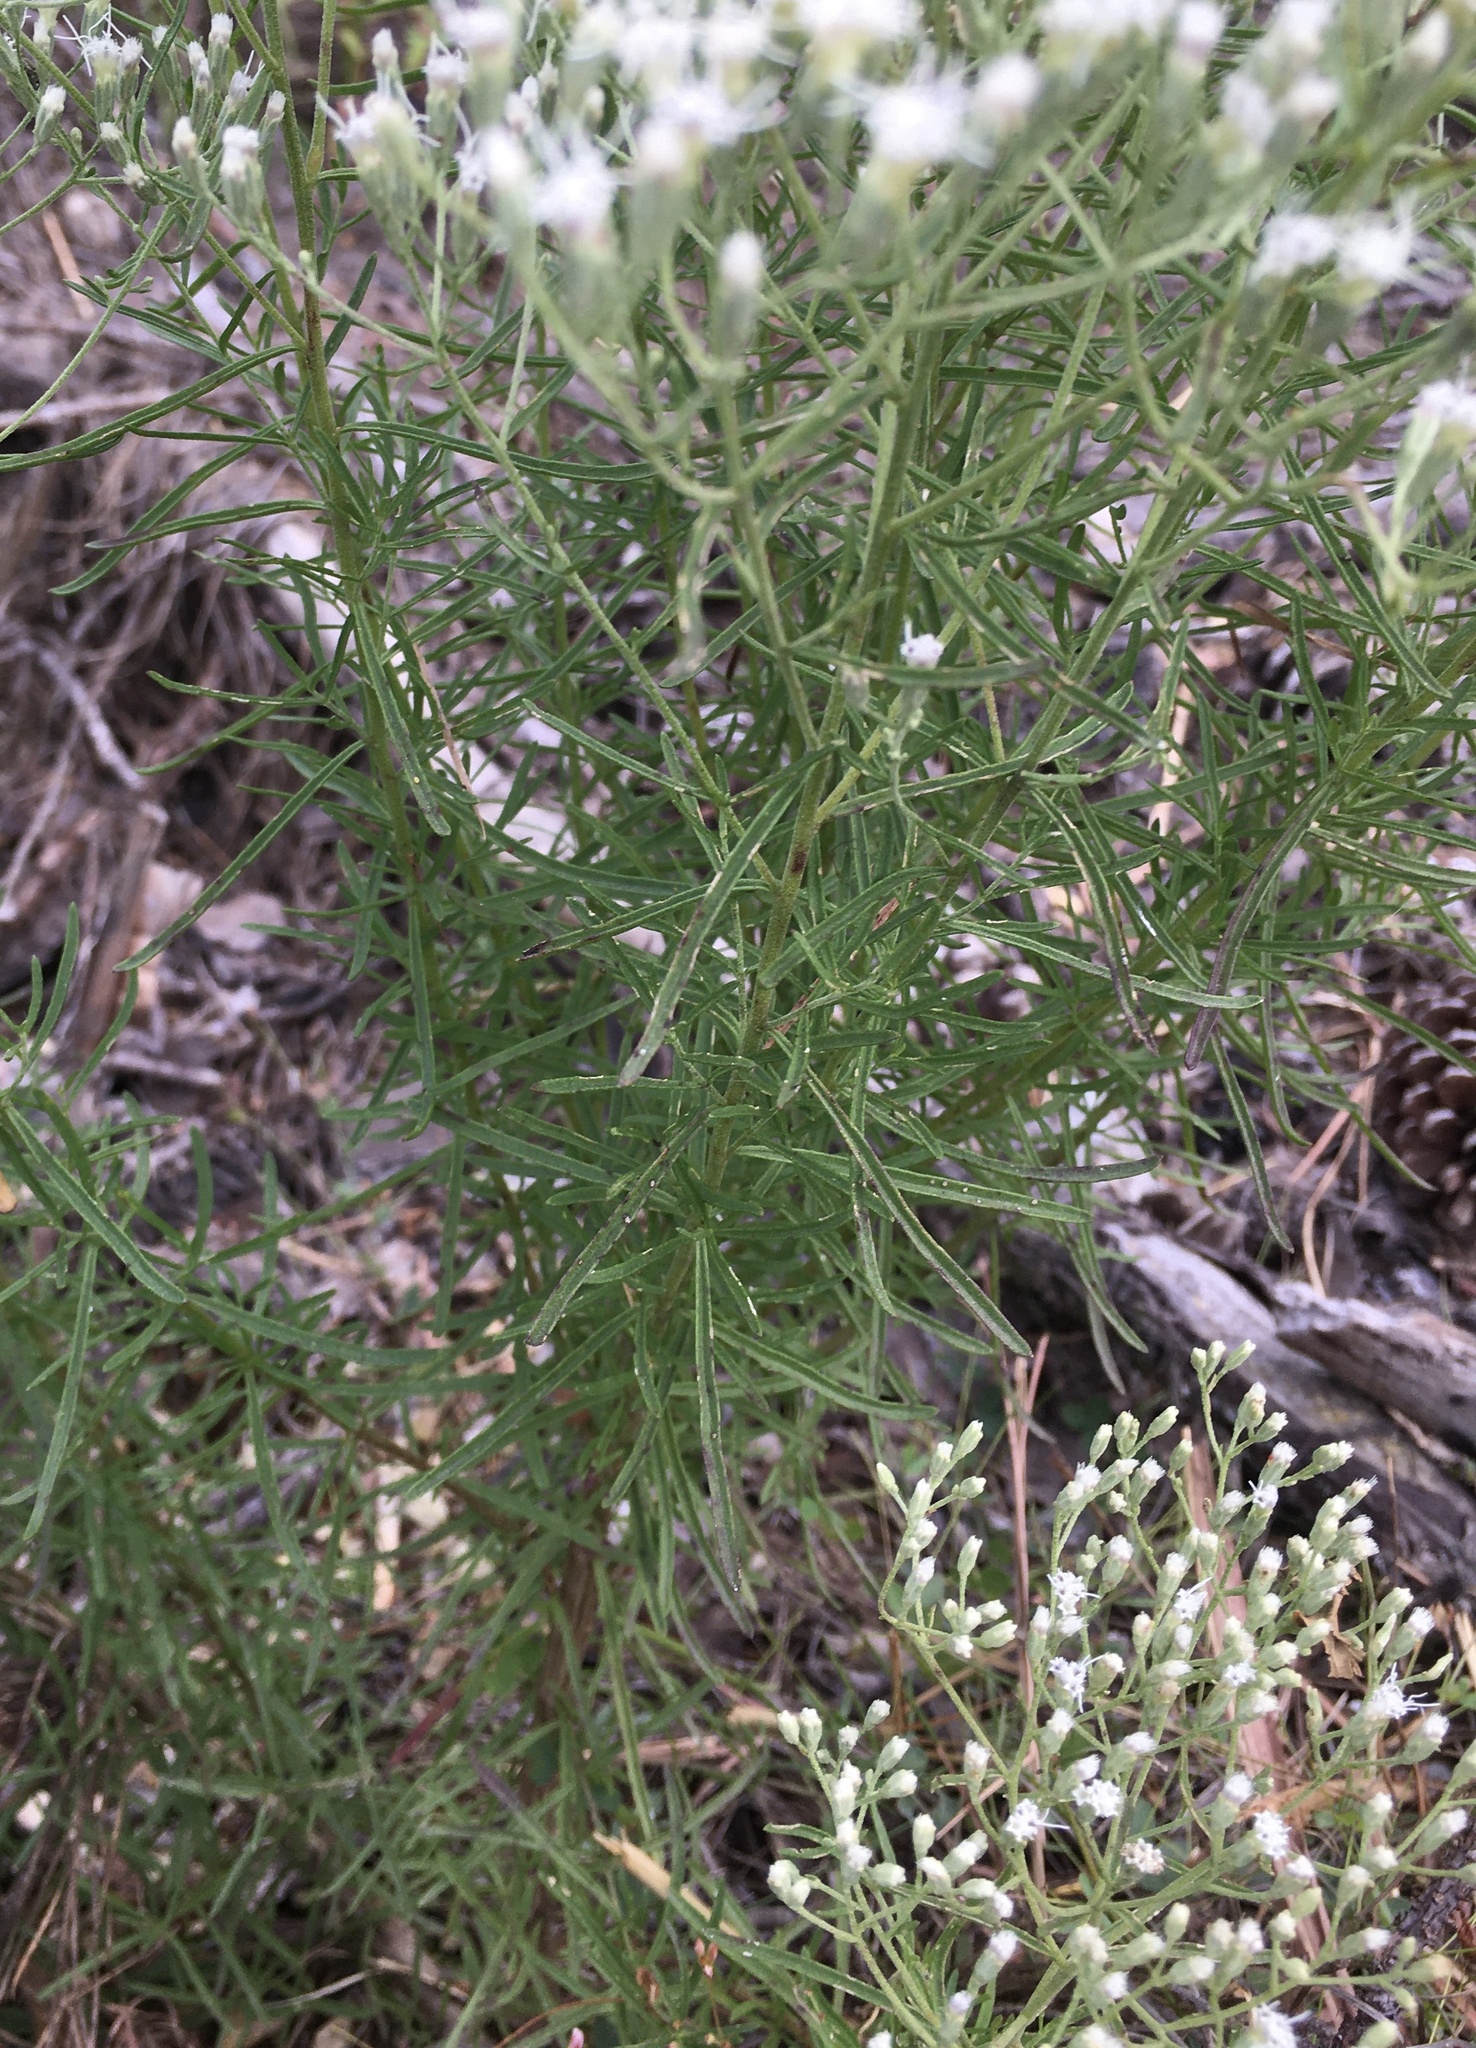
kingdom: Plantae
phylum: Tracheophyta
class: Magnoliopsida
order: Asterales
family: Asteraceae
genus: Eupatorium
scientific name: Eupatorium hyssopifolium
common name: Hyssop-leaf thoroughwort
